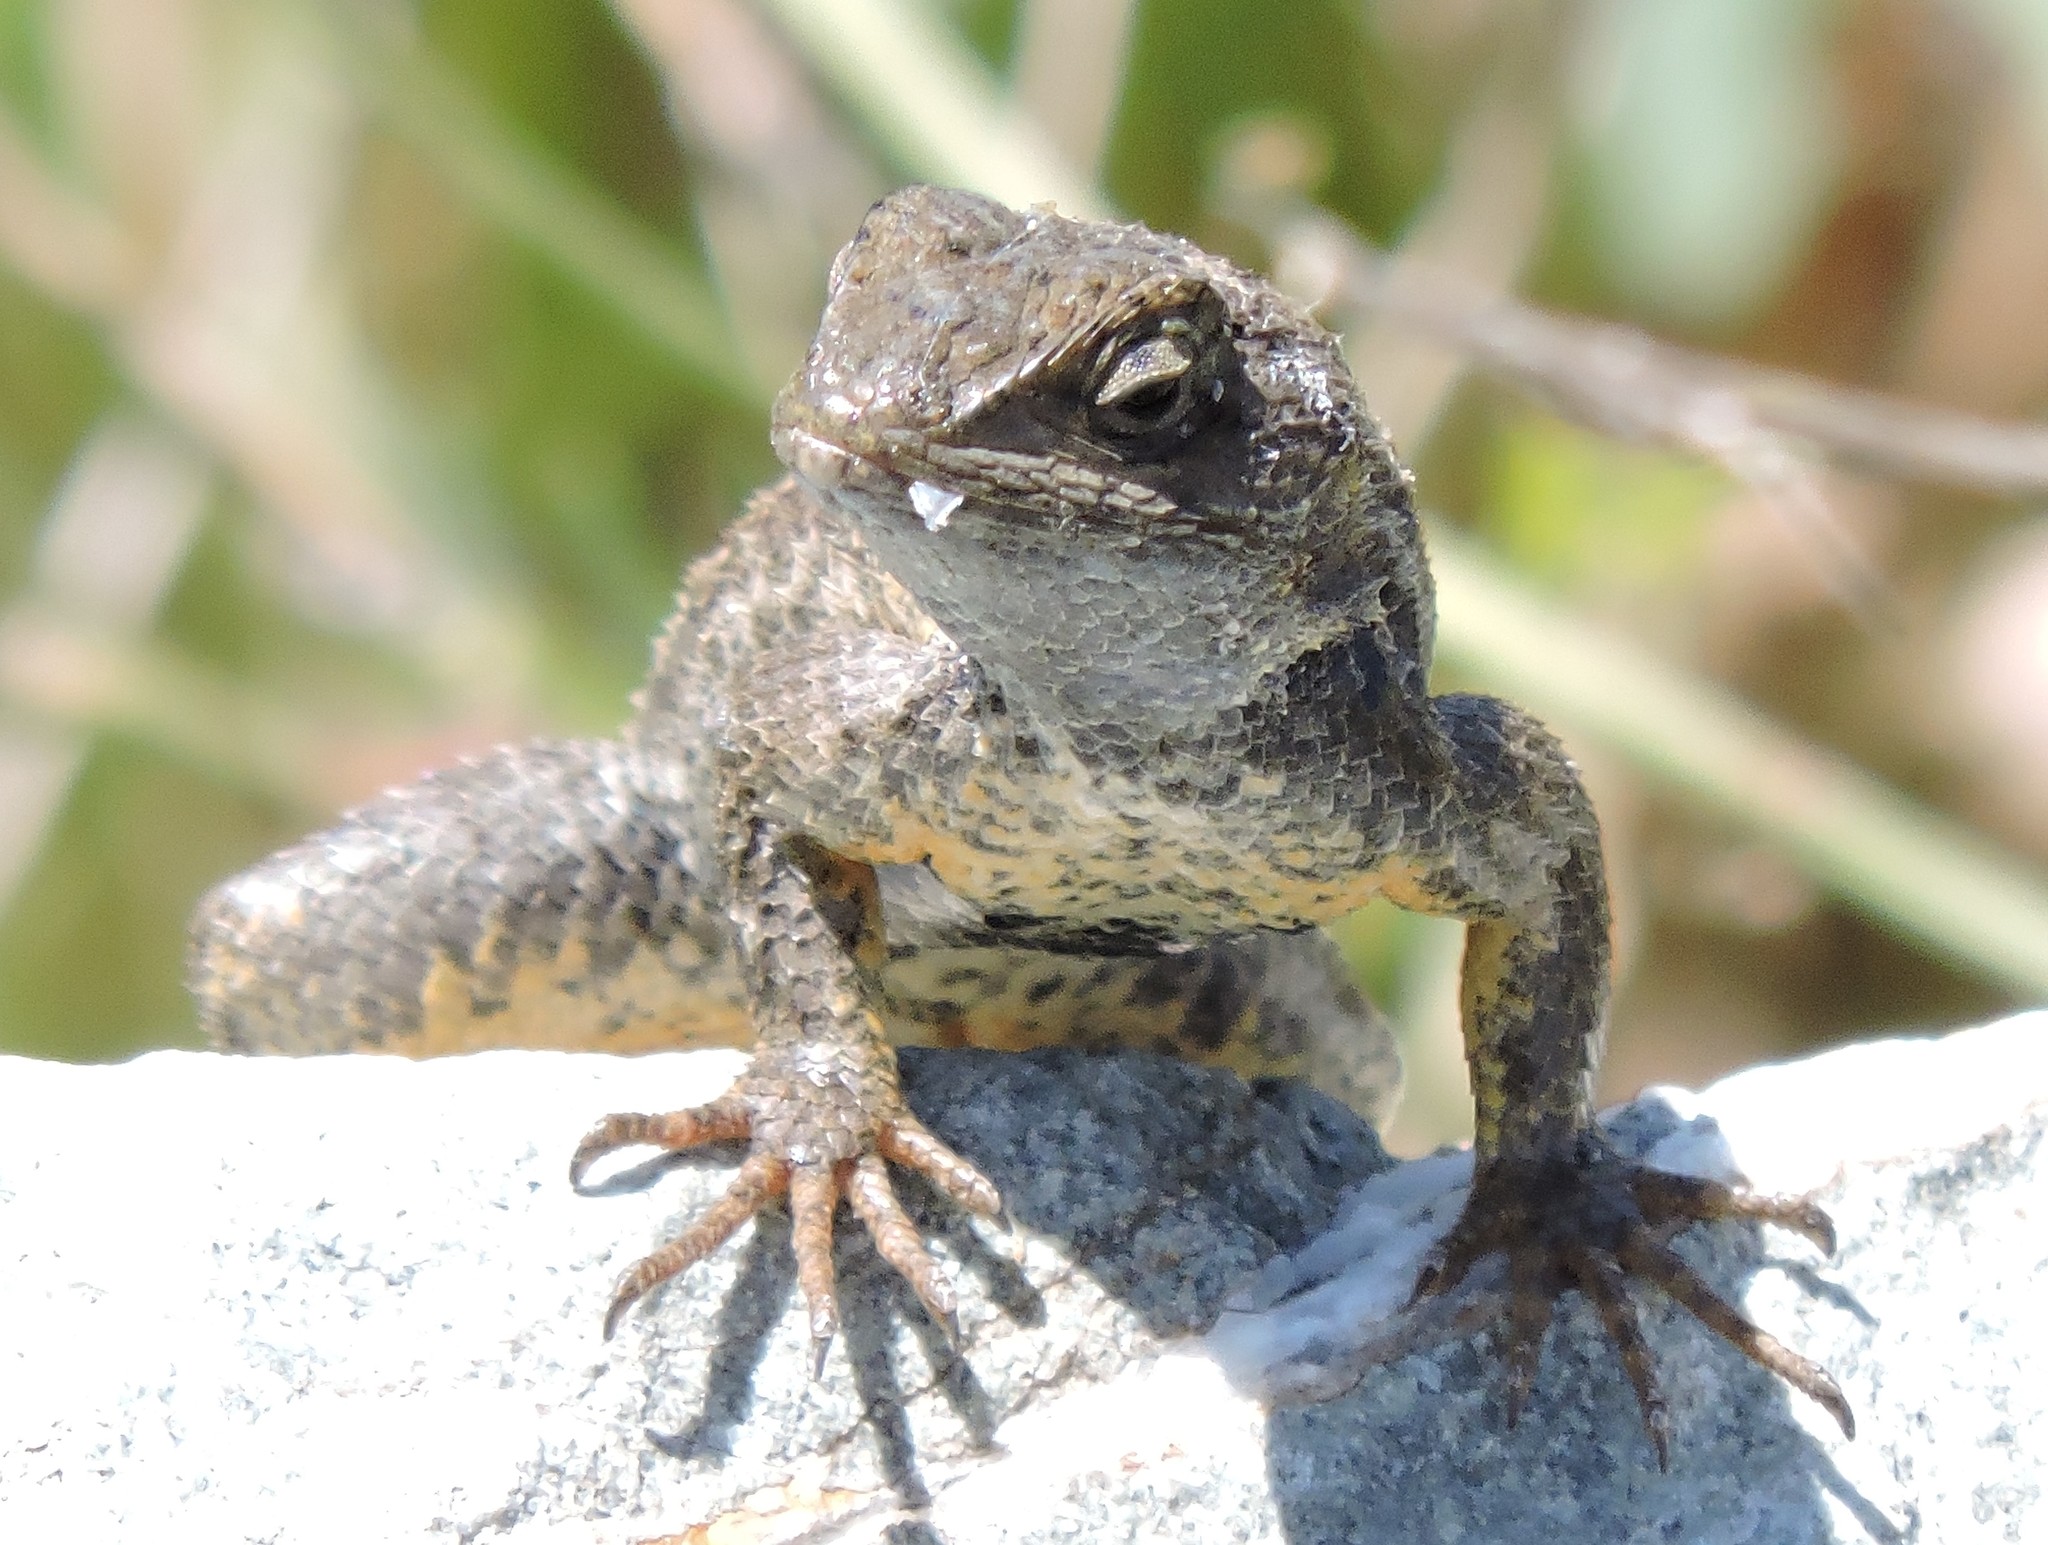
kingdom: Animalia
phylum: Chordata
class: Squamata
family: Phrynosomatidae
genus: Sceloporus
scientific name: Sceloporus occidentalis
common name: Western fence lizard
